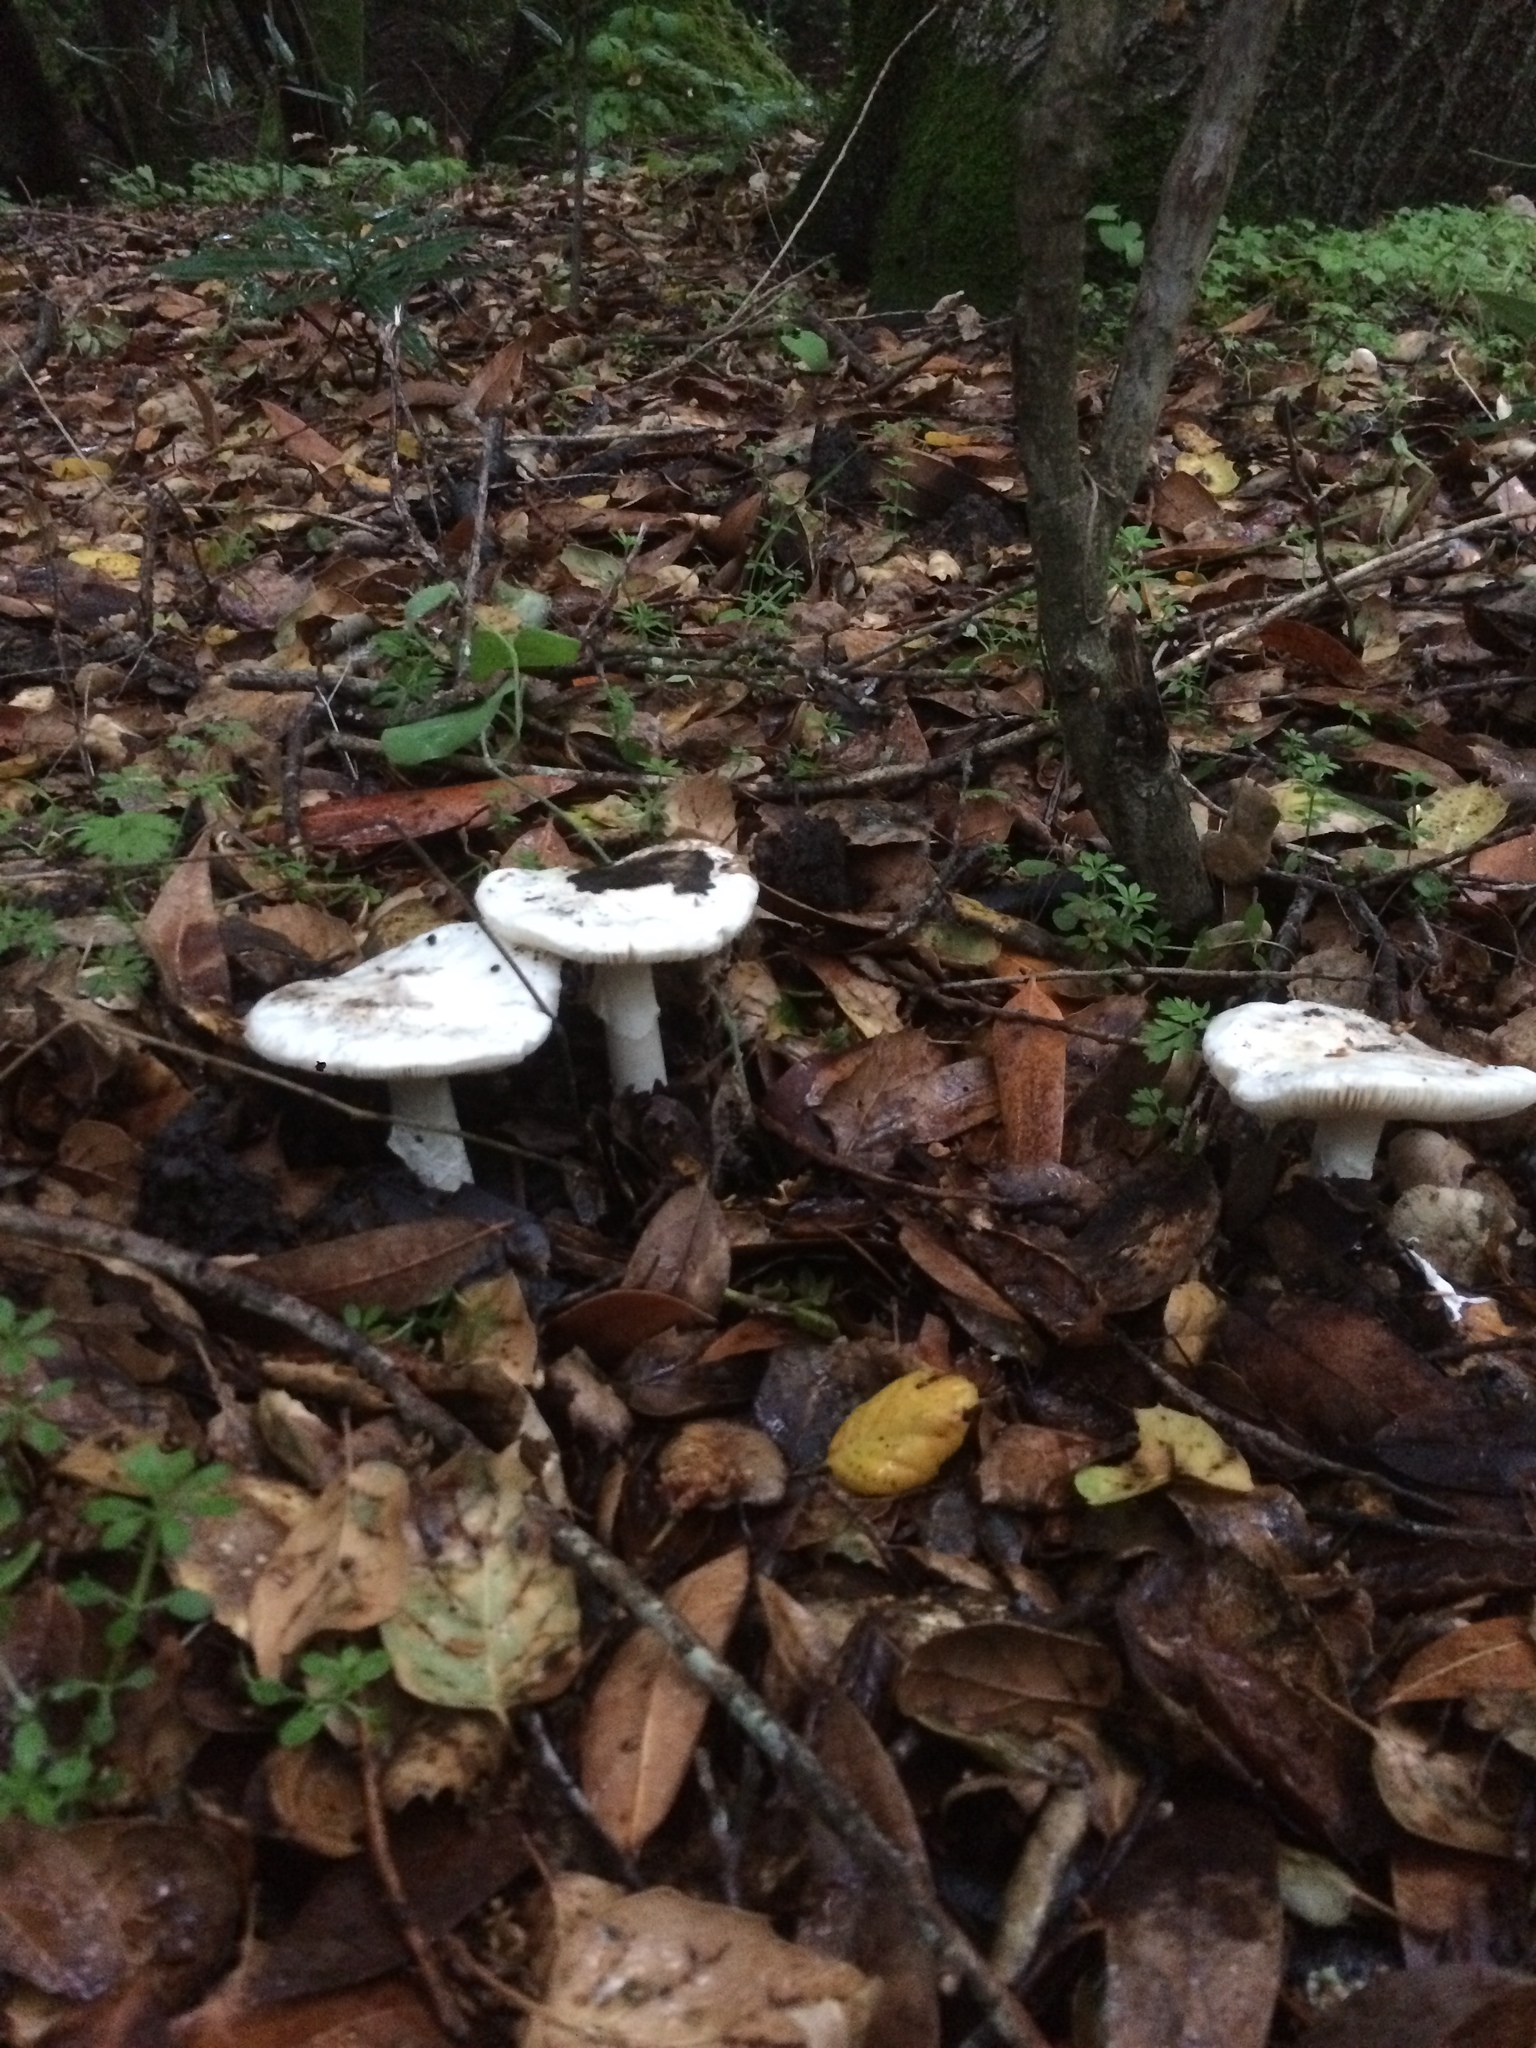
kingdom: Fungi
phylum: Basidiomycota
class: Agaricomycetes
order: Agaricales
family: Amanitaceae
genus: Amanita
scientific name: Amanita ocreata
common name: Western destroying angel
